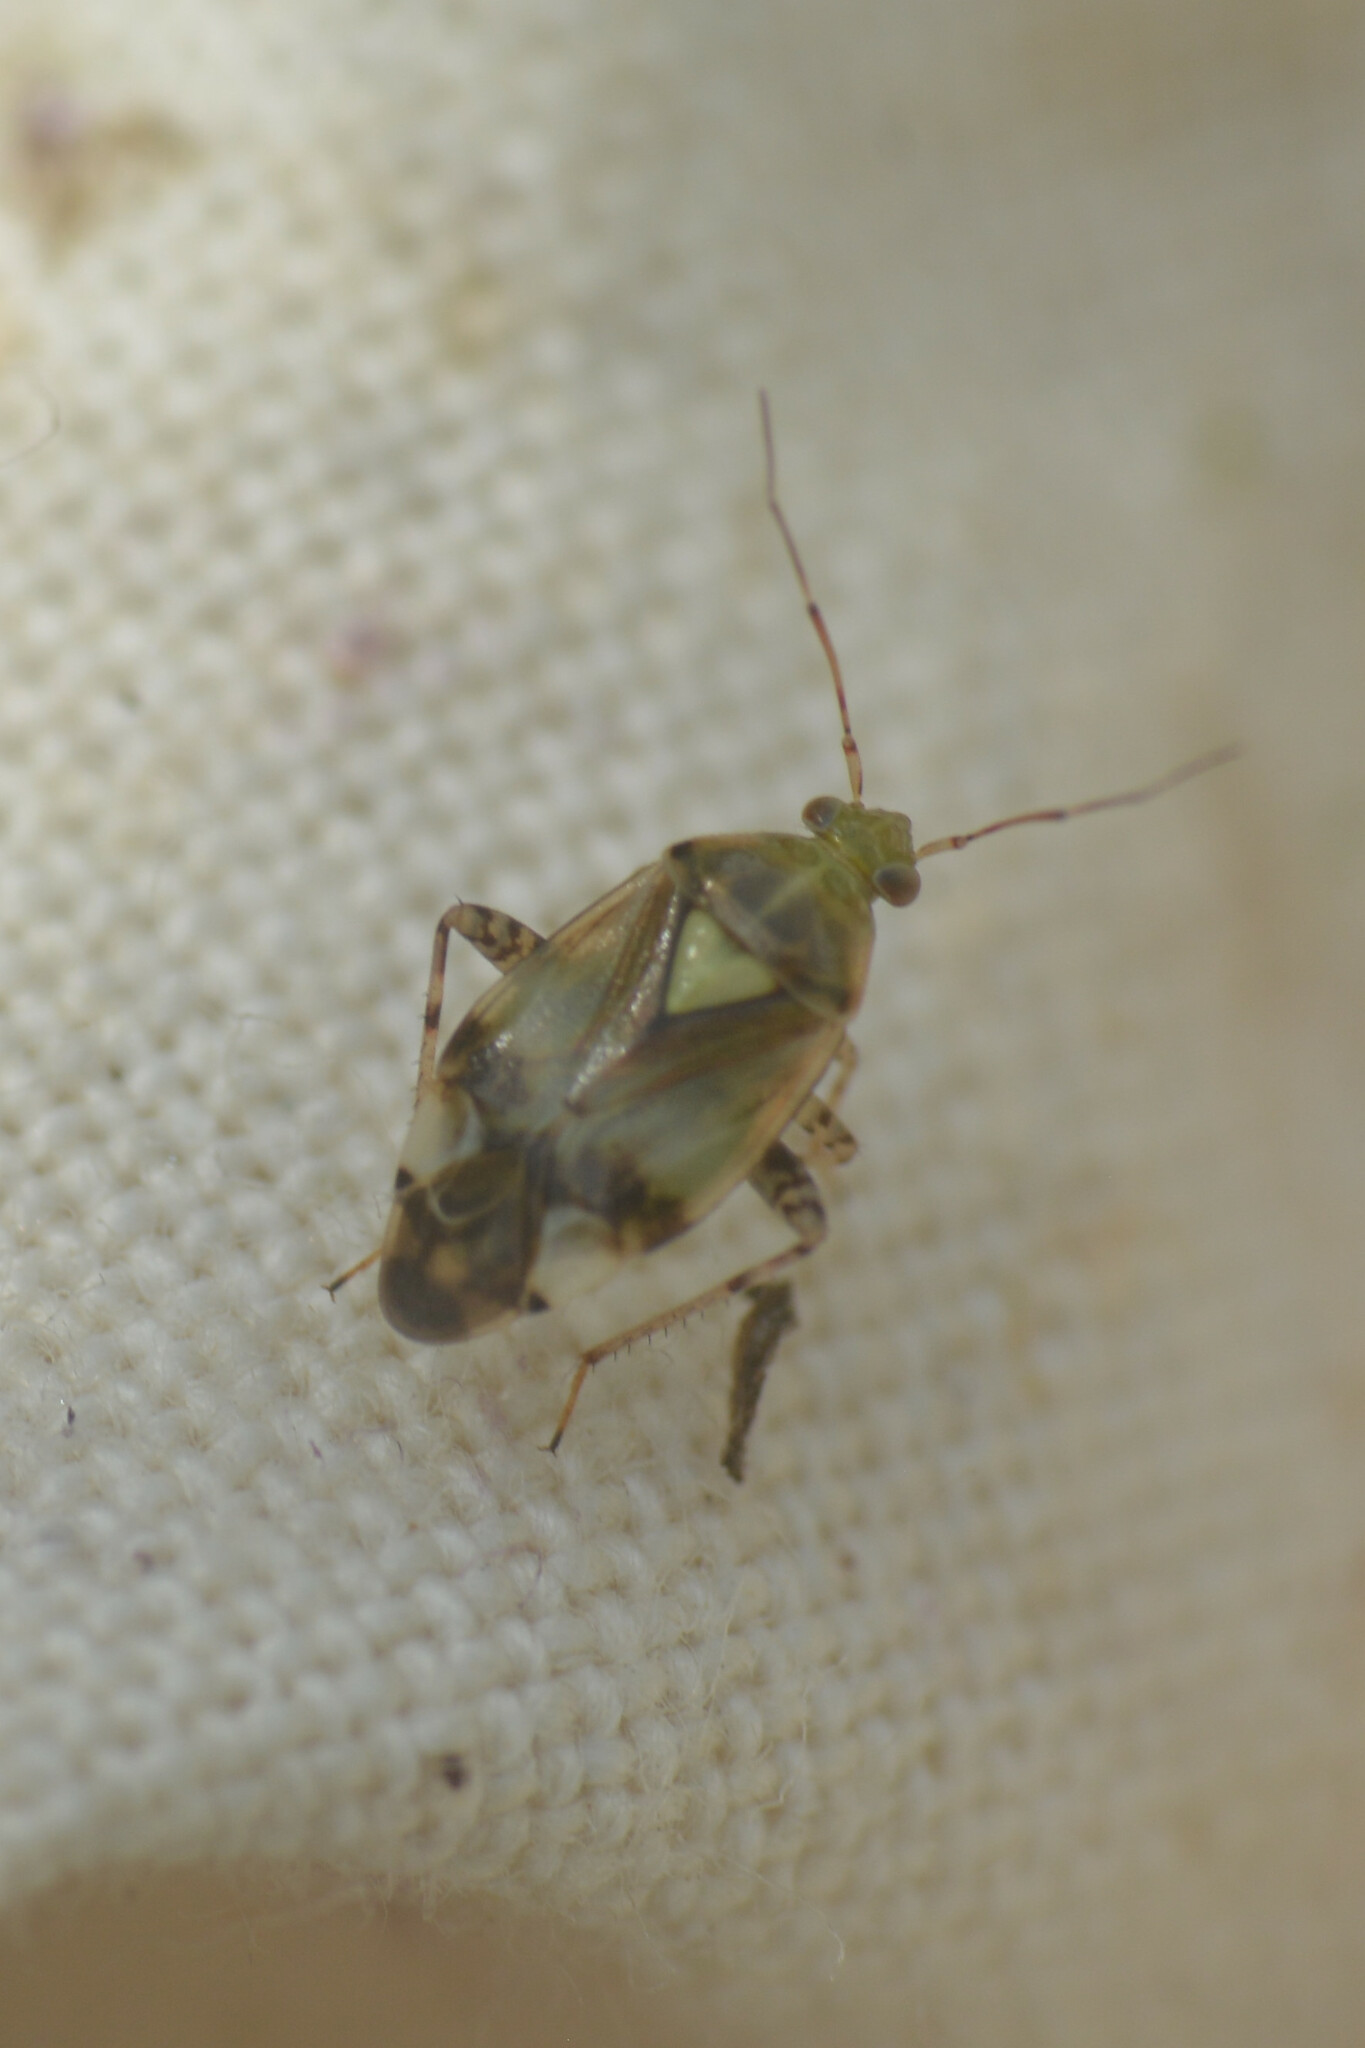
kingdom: Animalia
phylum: Arthropoda
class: Insecta
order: Hemiptera
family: Miridae
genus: Liocoris
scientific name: Liocoris tripustulatus
